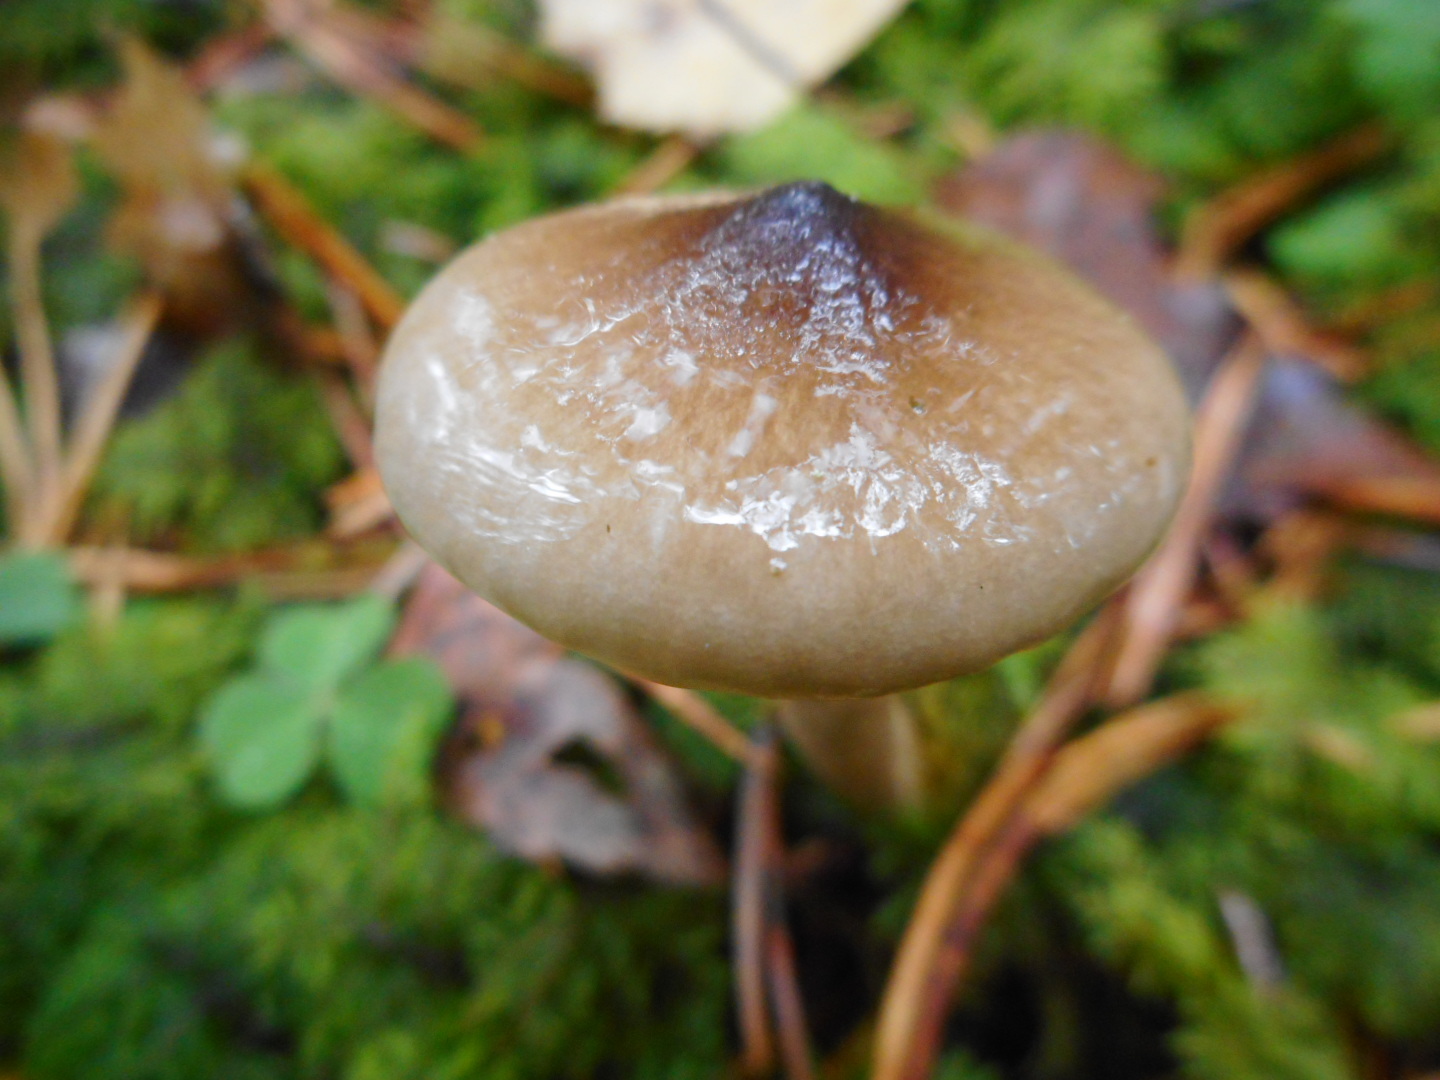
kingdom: Fungi
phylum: Basidiomycota
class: Agaricomycetes
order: Agaricales
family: Hygrophoraceae
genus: Hygrophorus
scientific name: Hygrophorus olivaceoalbus
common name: Olive wax cap
